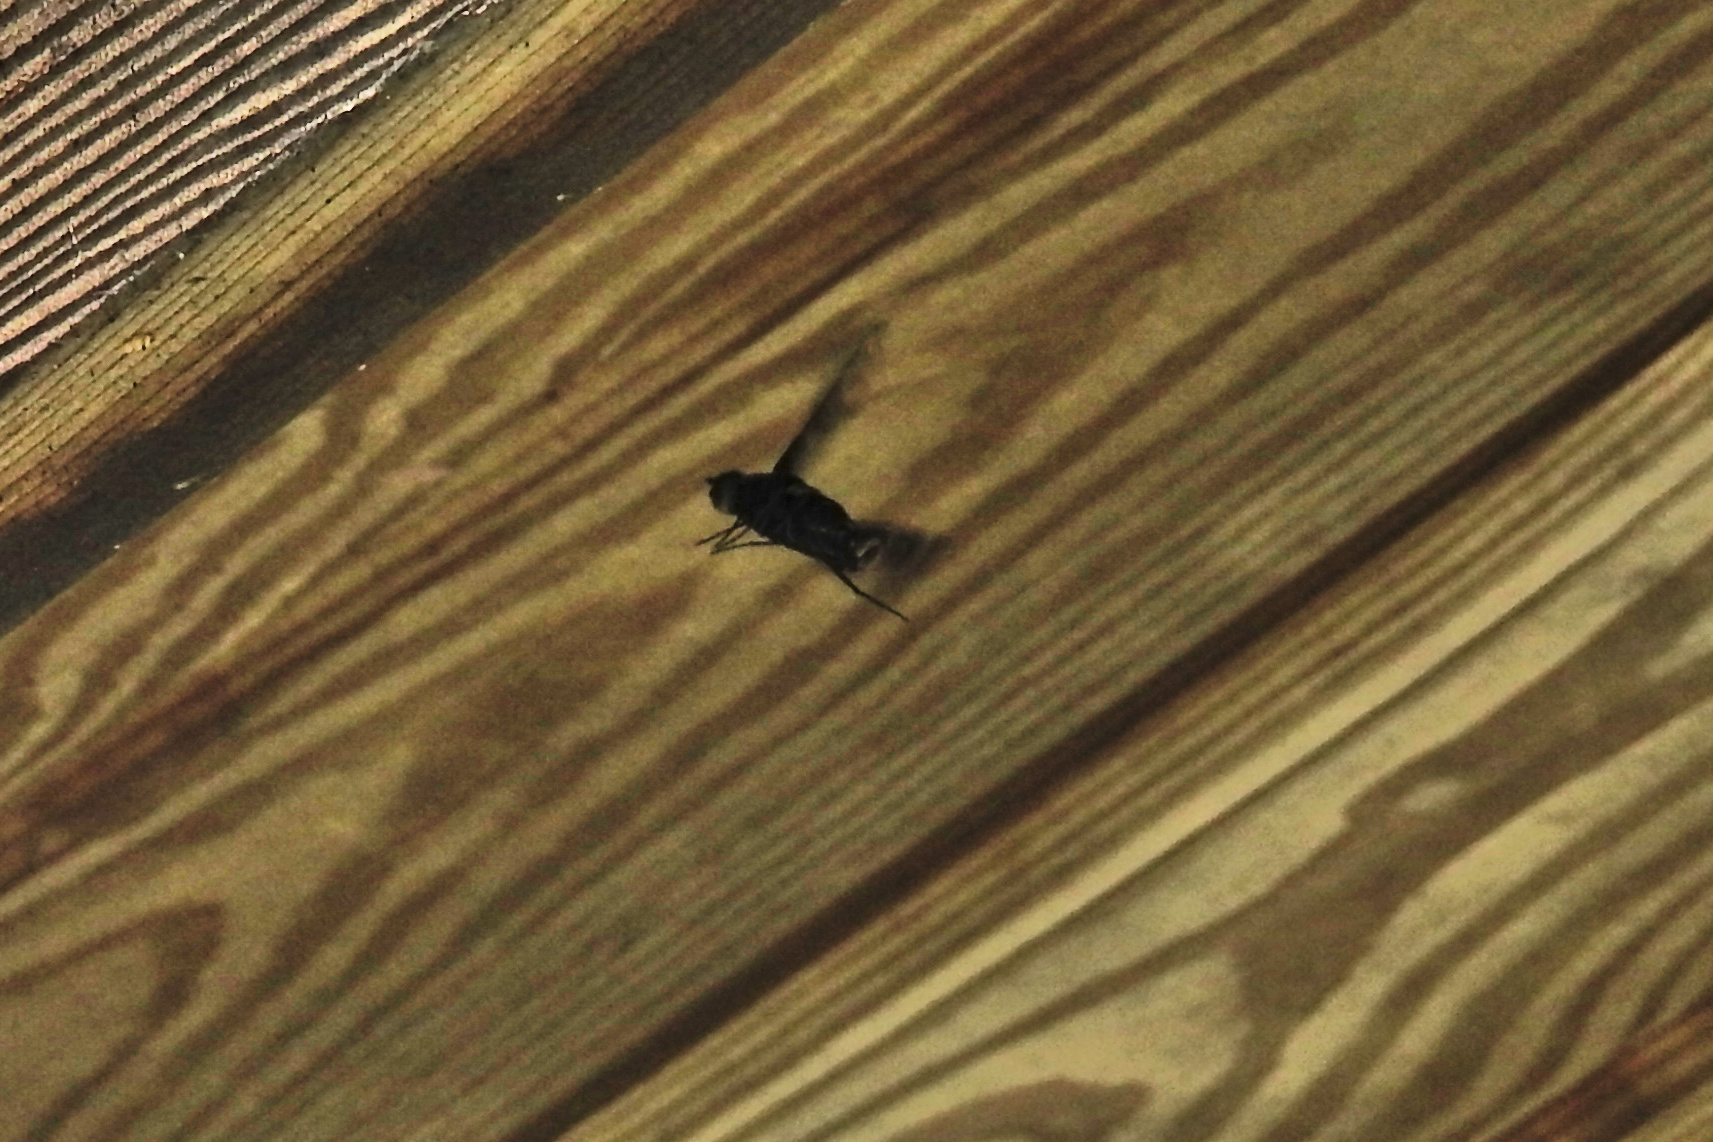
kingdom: Animalia
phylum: Arthropoda
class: Insecta
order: Diptera
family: Bombyliidae
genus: Xenox
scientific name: Xenox tigrinus
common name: Tiger bee fly
